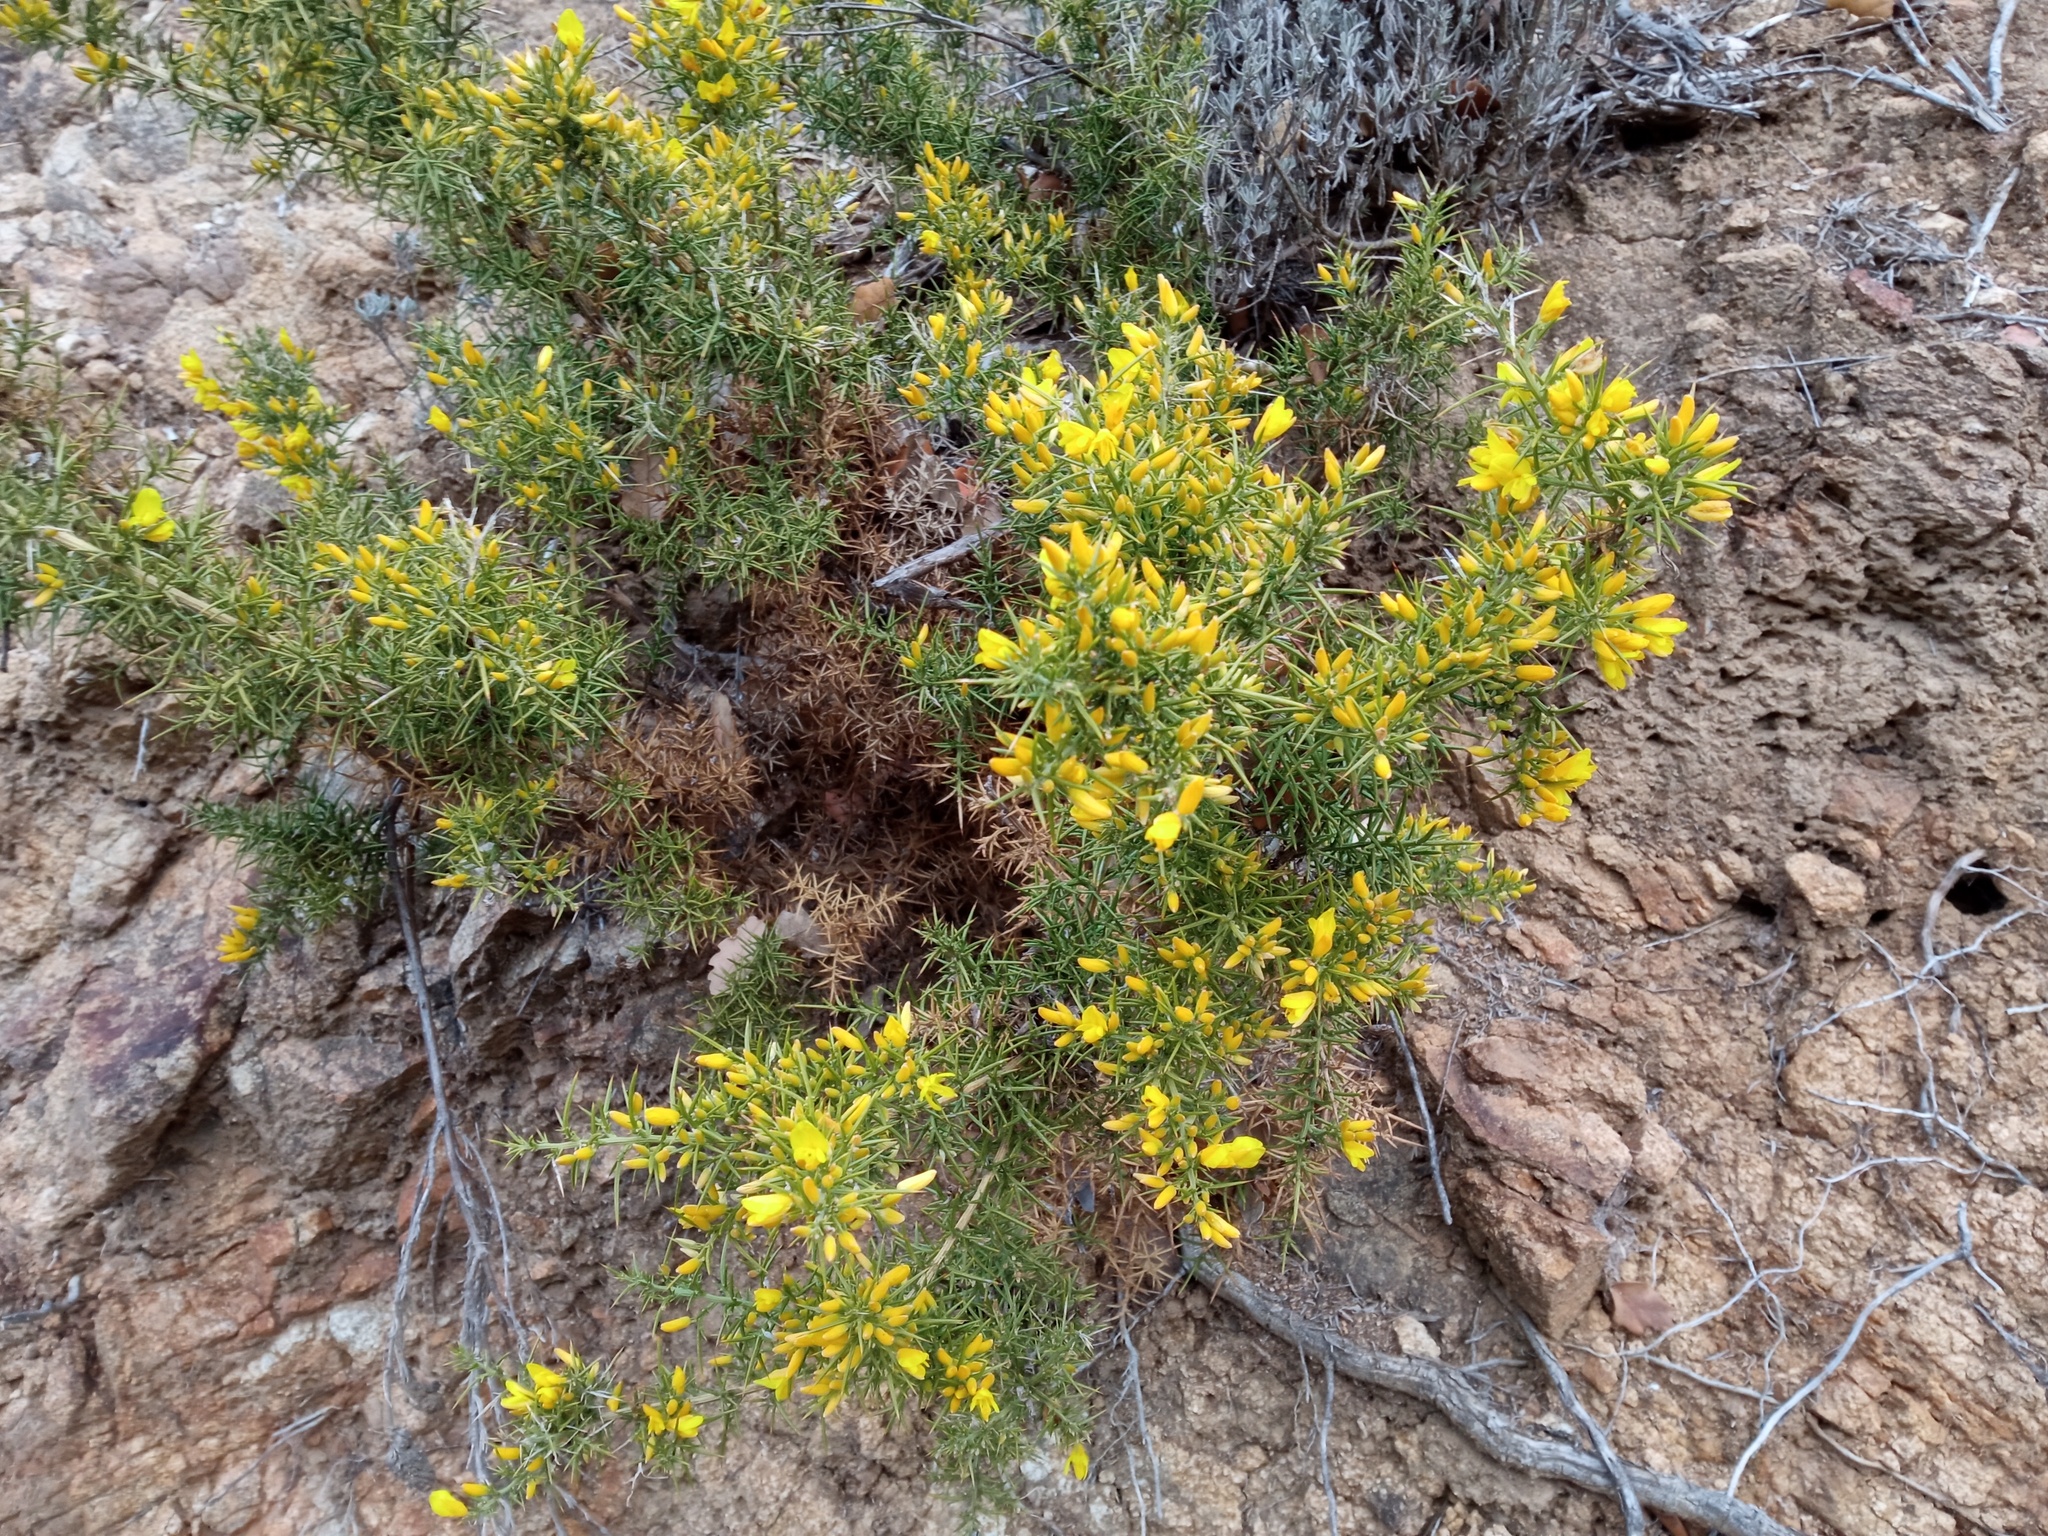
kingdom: Plantae
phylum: Tracheophyta
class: Magnoliopsida
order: Fabales
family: Fabaceae
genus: Ulex
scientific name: Ulex parviflorus
